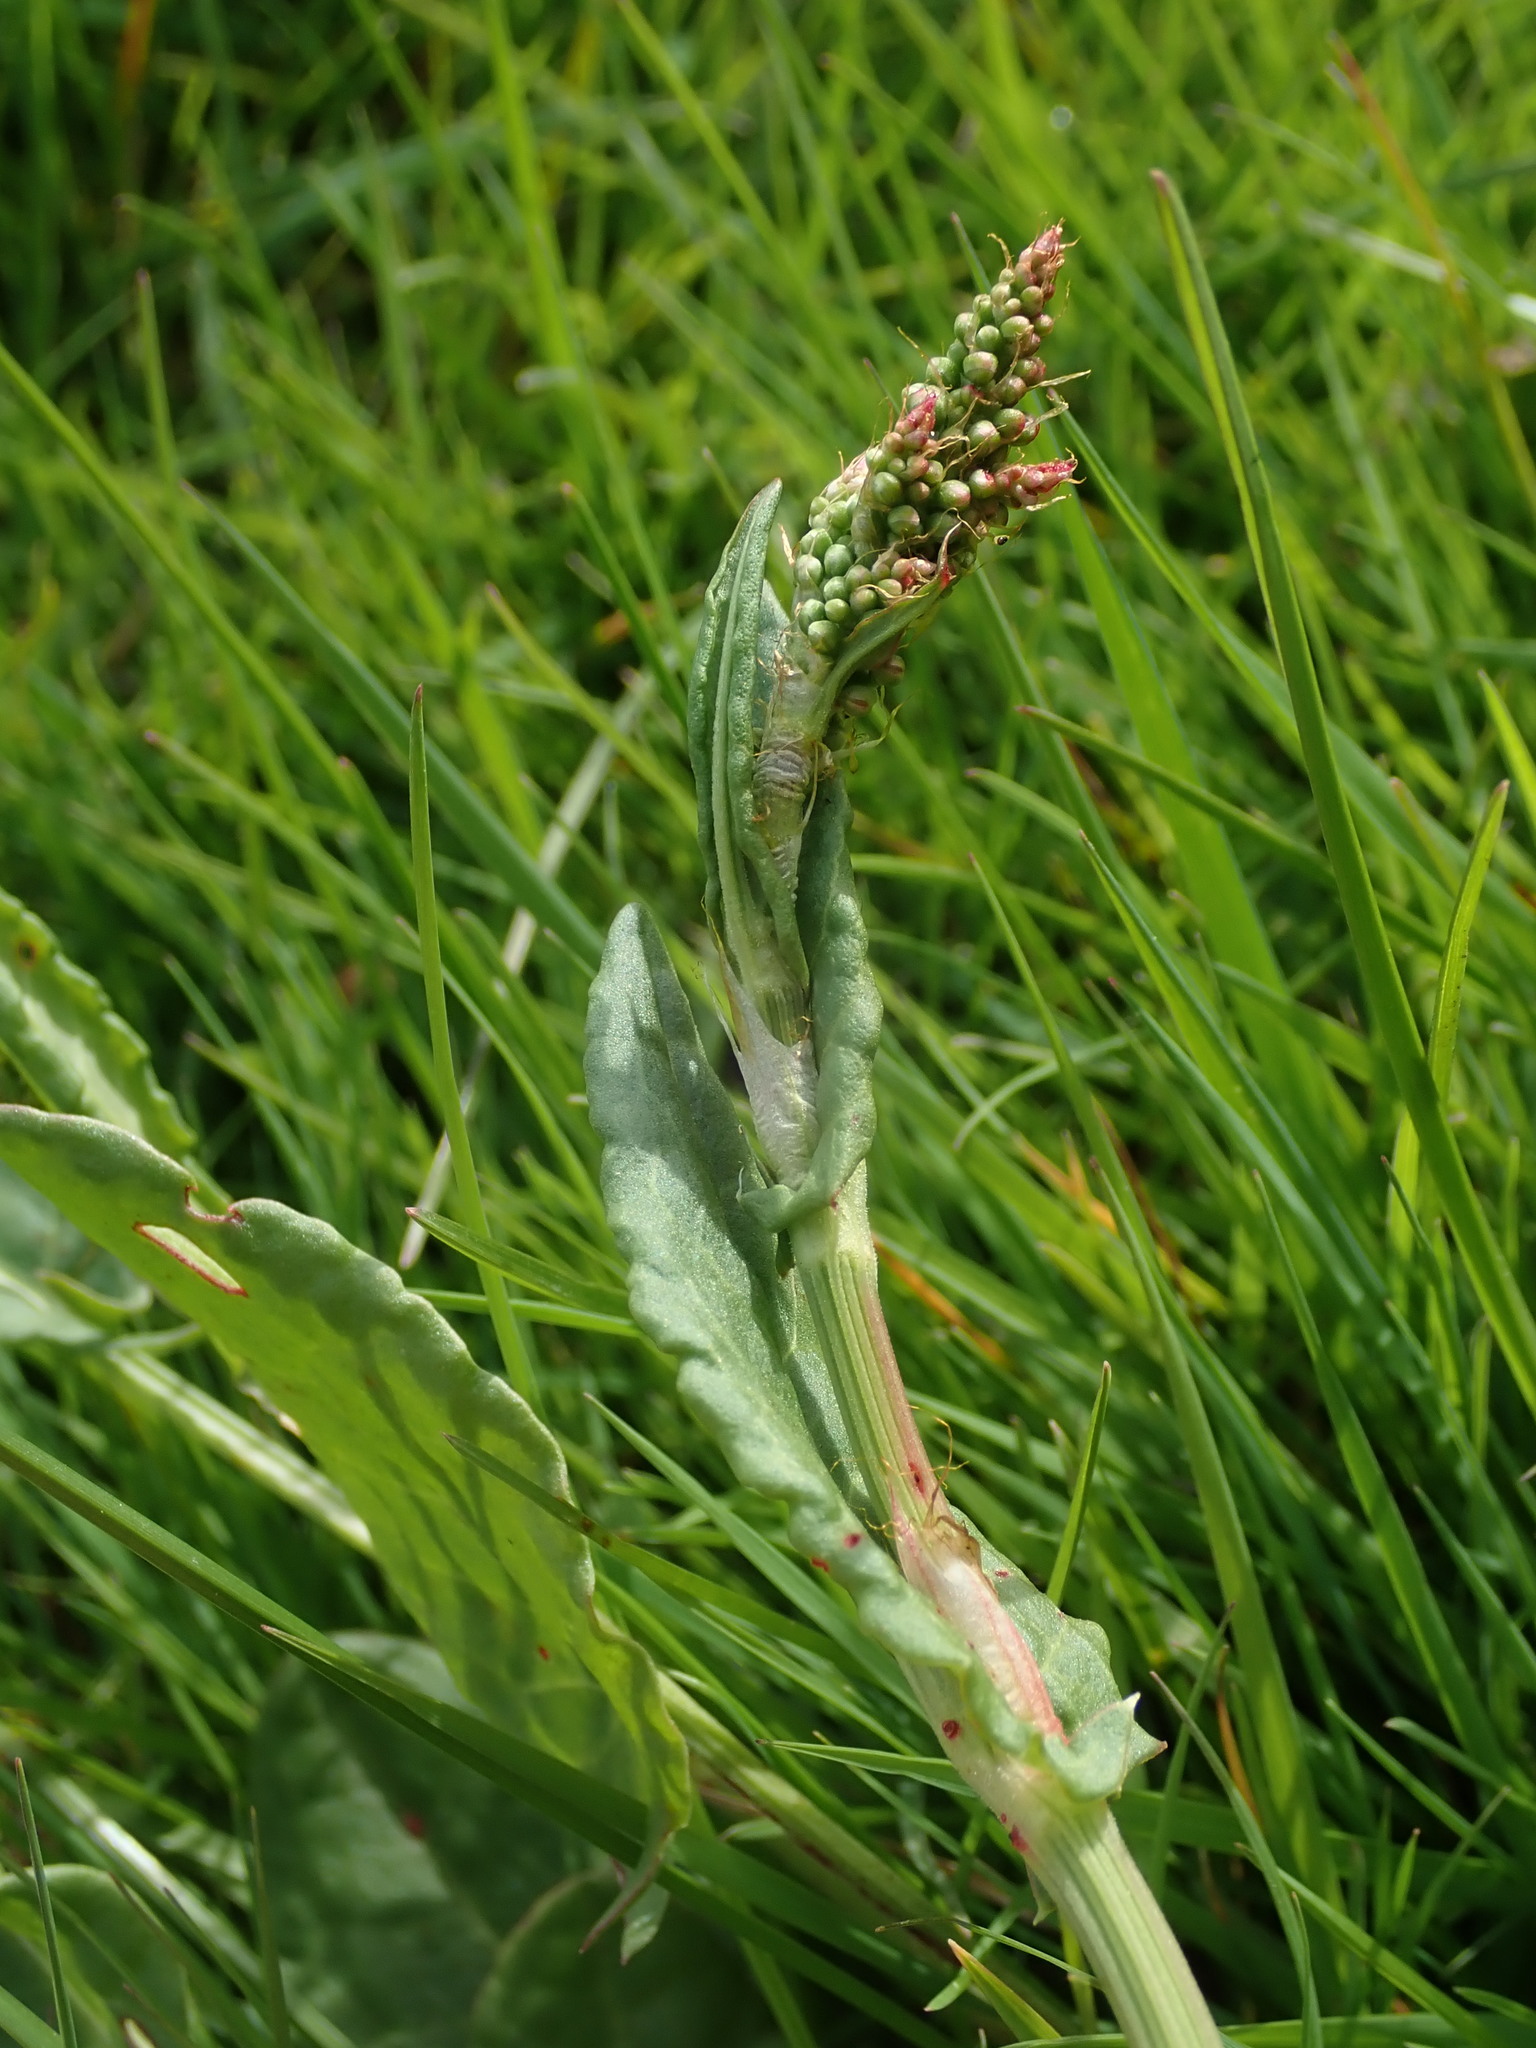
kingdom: Plantae
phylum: Tracheophyta
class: Magnoliopsida
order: Caryophyllales
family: Polygonaceae
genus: Rumex
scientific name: Rumex acetosa
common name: Garden sorrel
